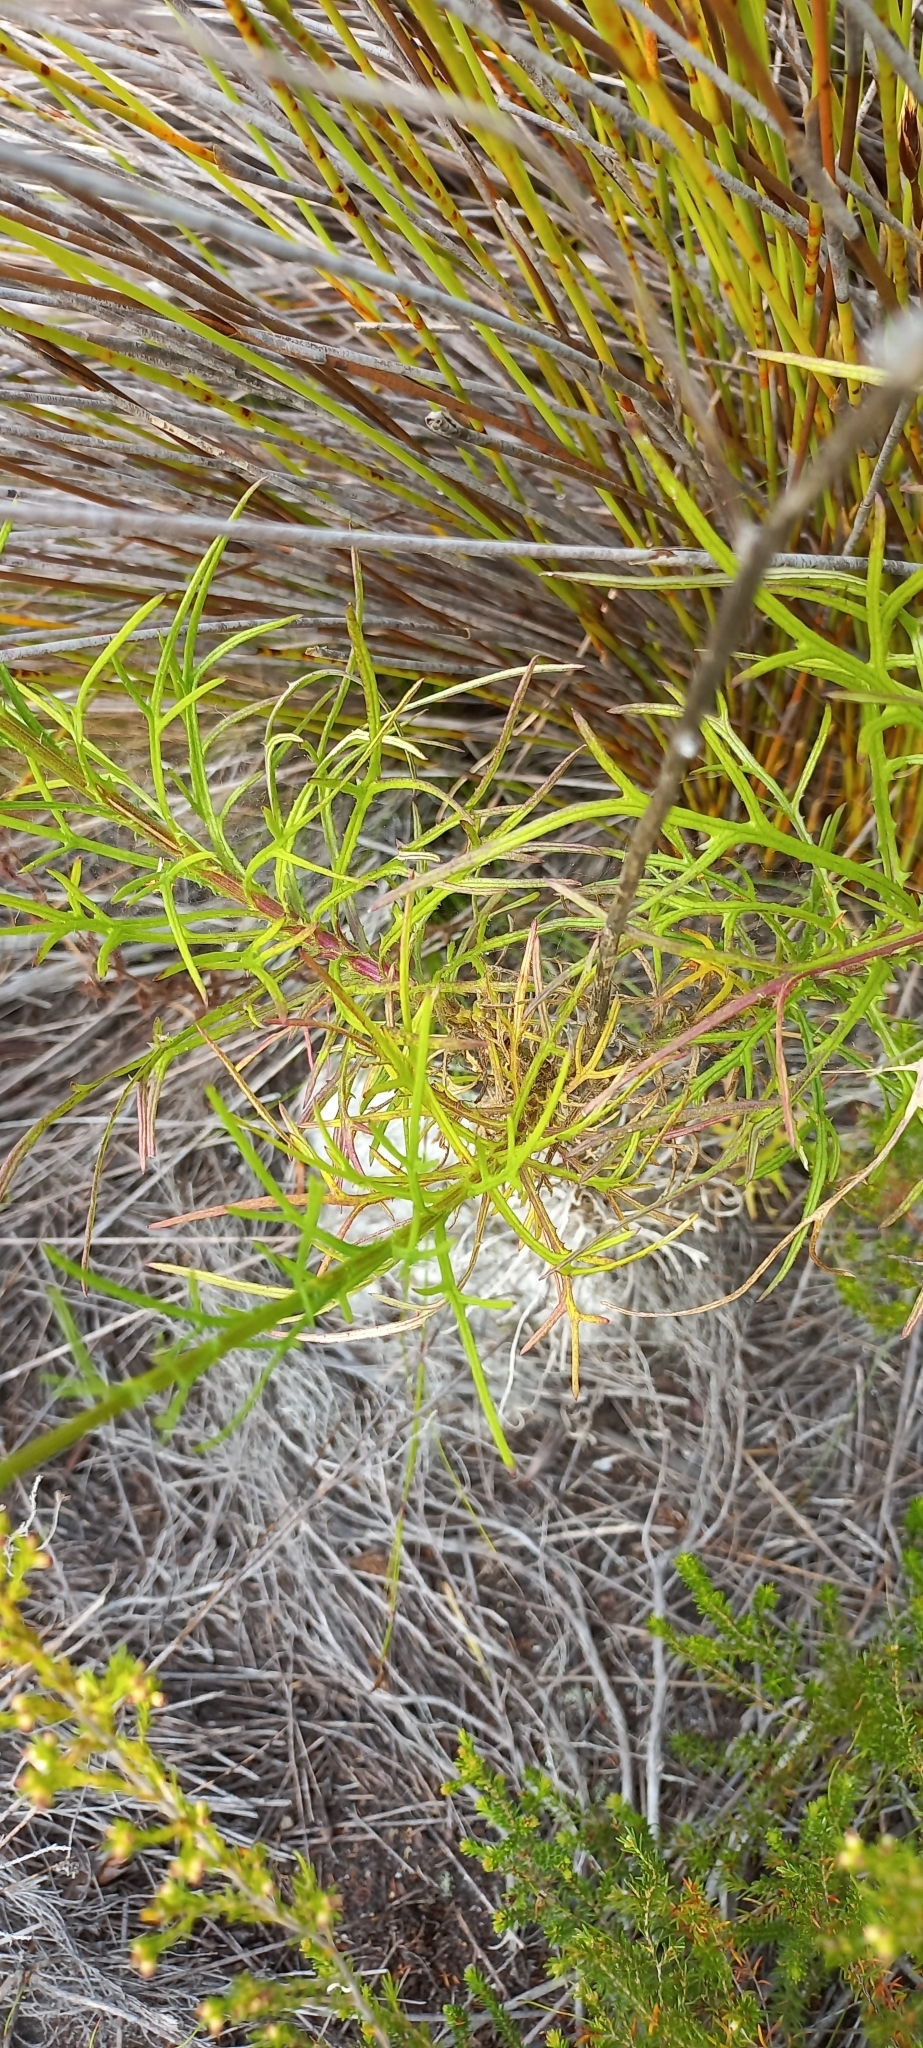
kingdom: Plantae
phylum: Tracheophyta
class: Magnoliopsida
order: Asterales
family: Asteraceae
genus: Senecio
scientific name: Senecio umbellatus
